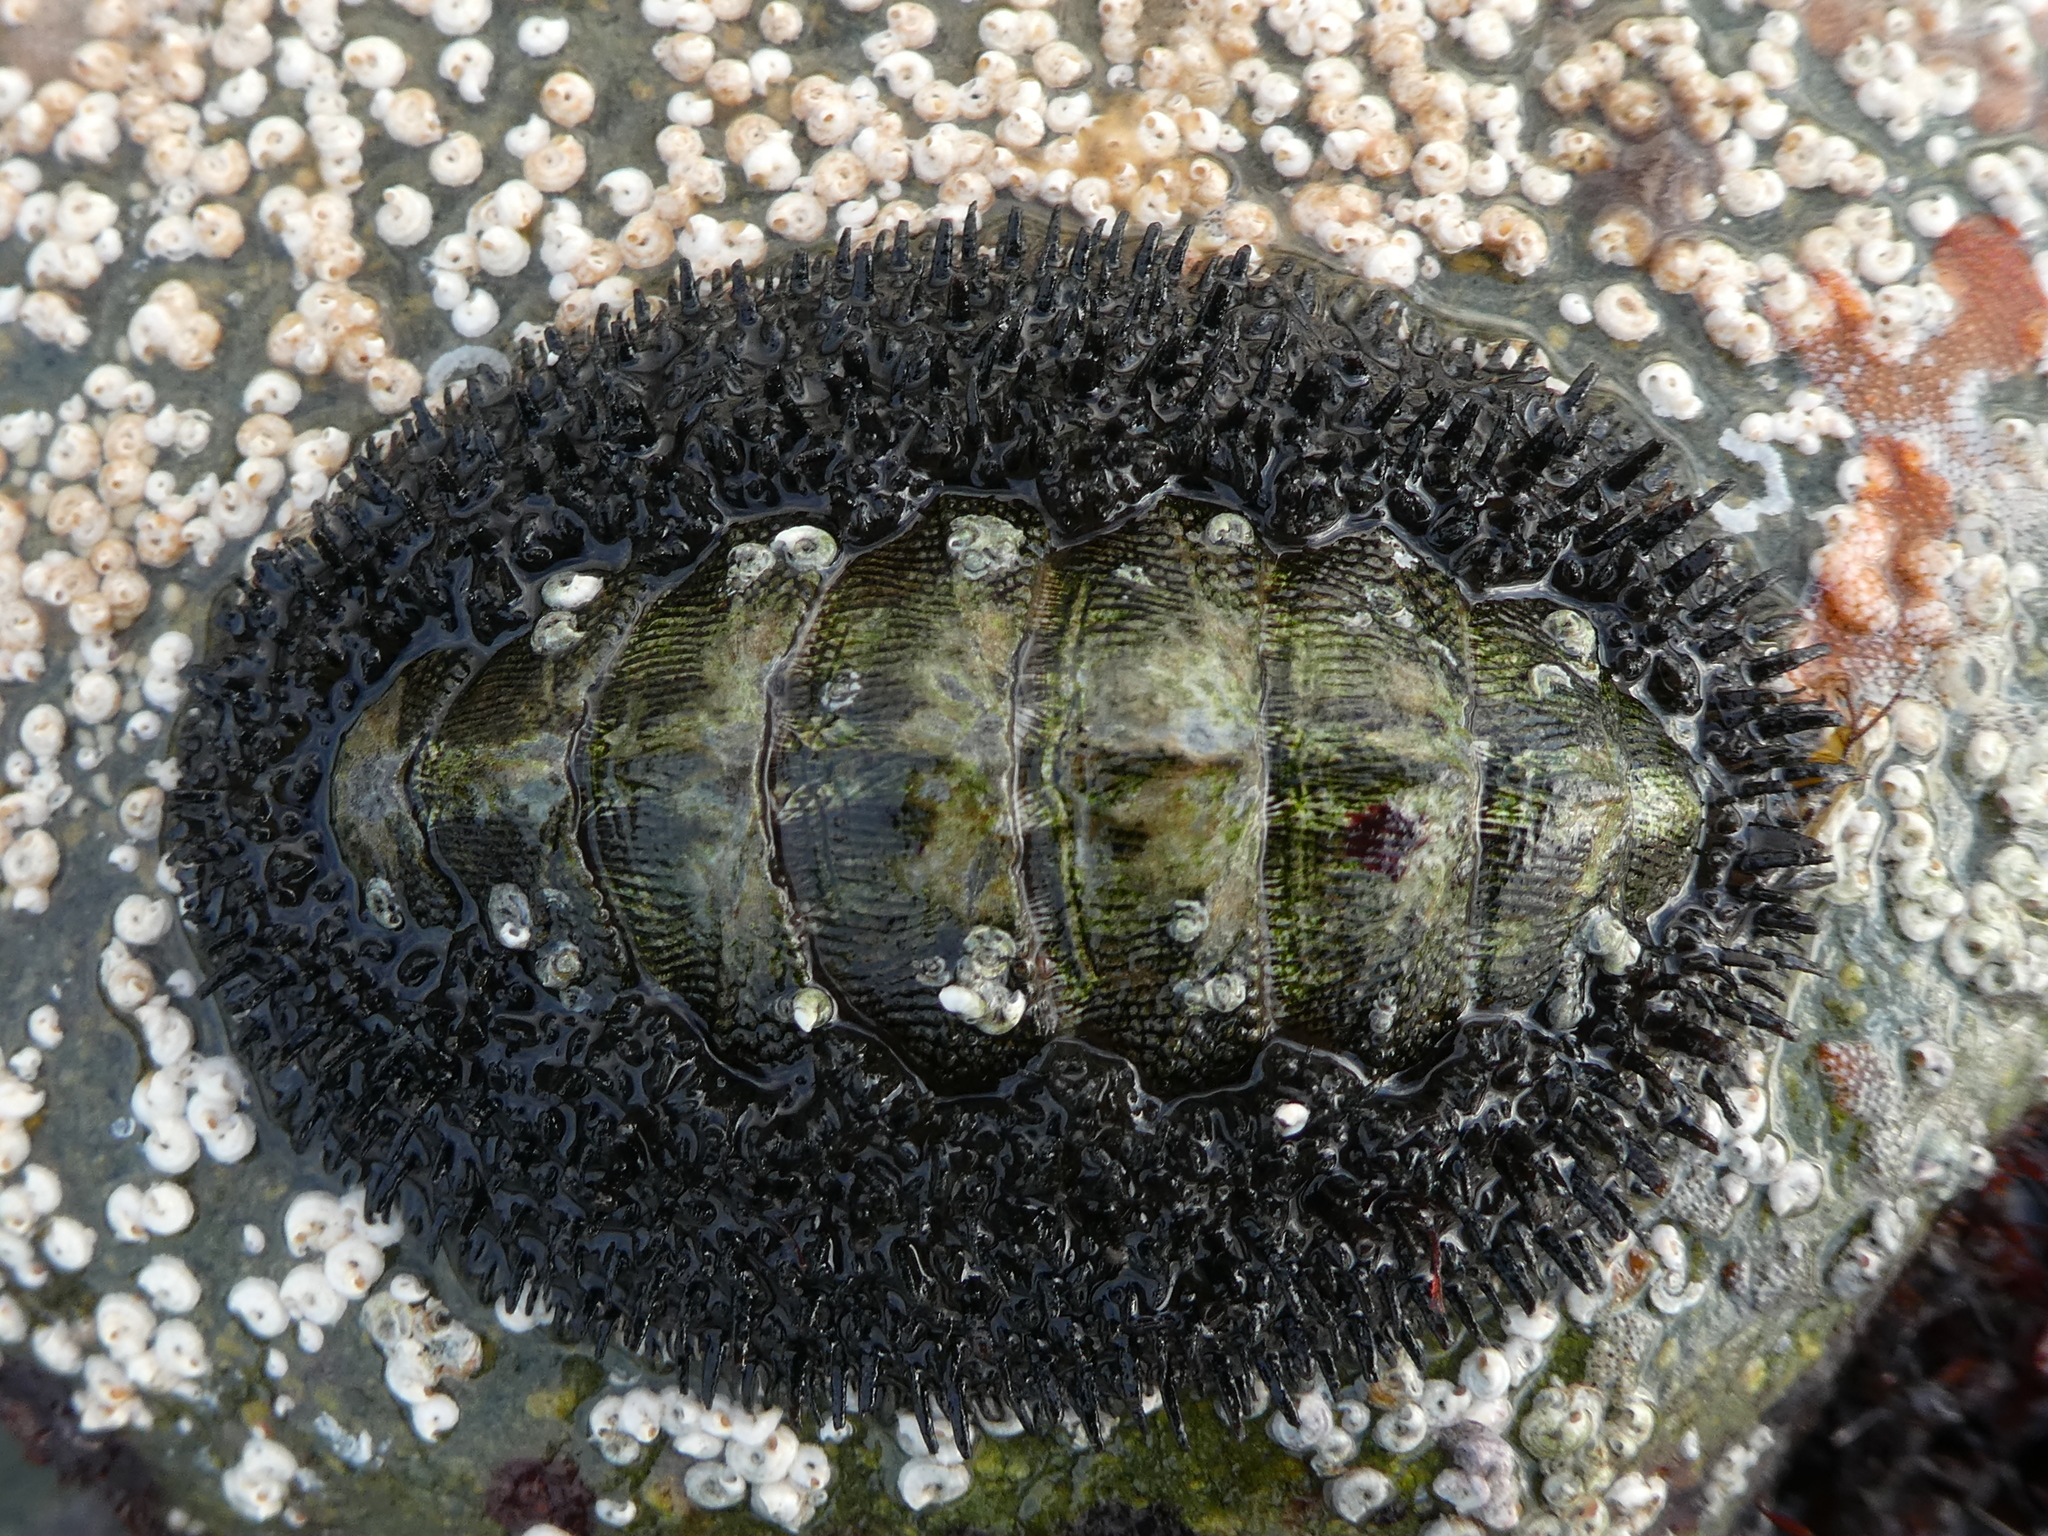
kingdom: Animalia
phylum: Mollusca
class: Polyplacophora
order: Chitonida
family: Mopaliidae
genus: Mopalia
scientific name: Mopalia muscosa
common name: Mossy chiton
